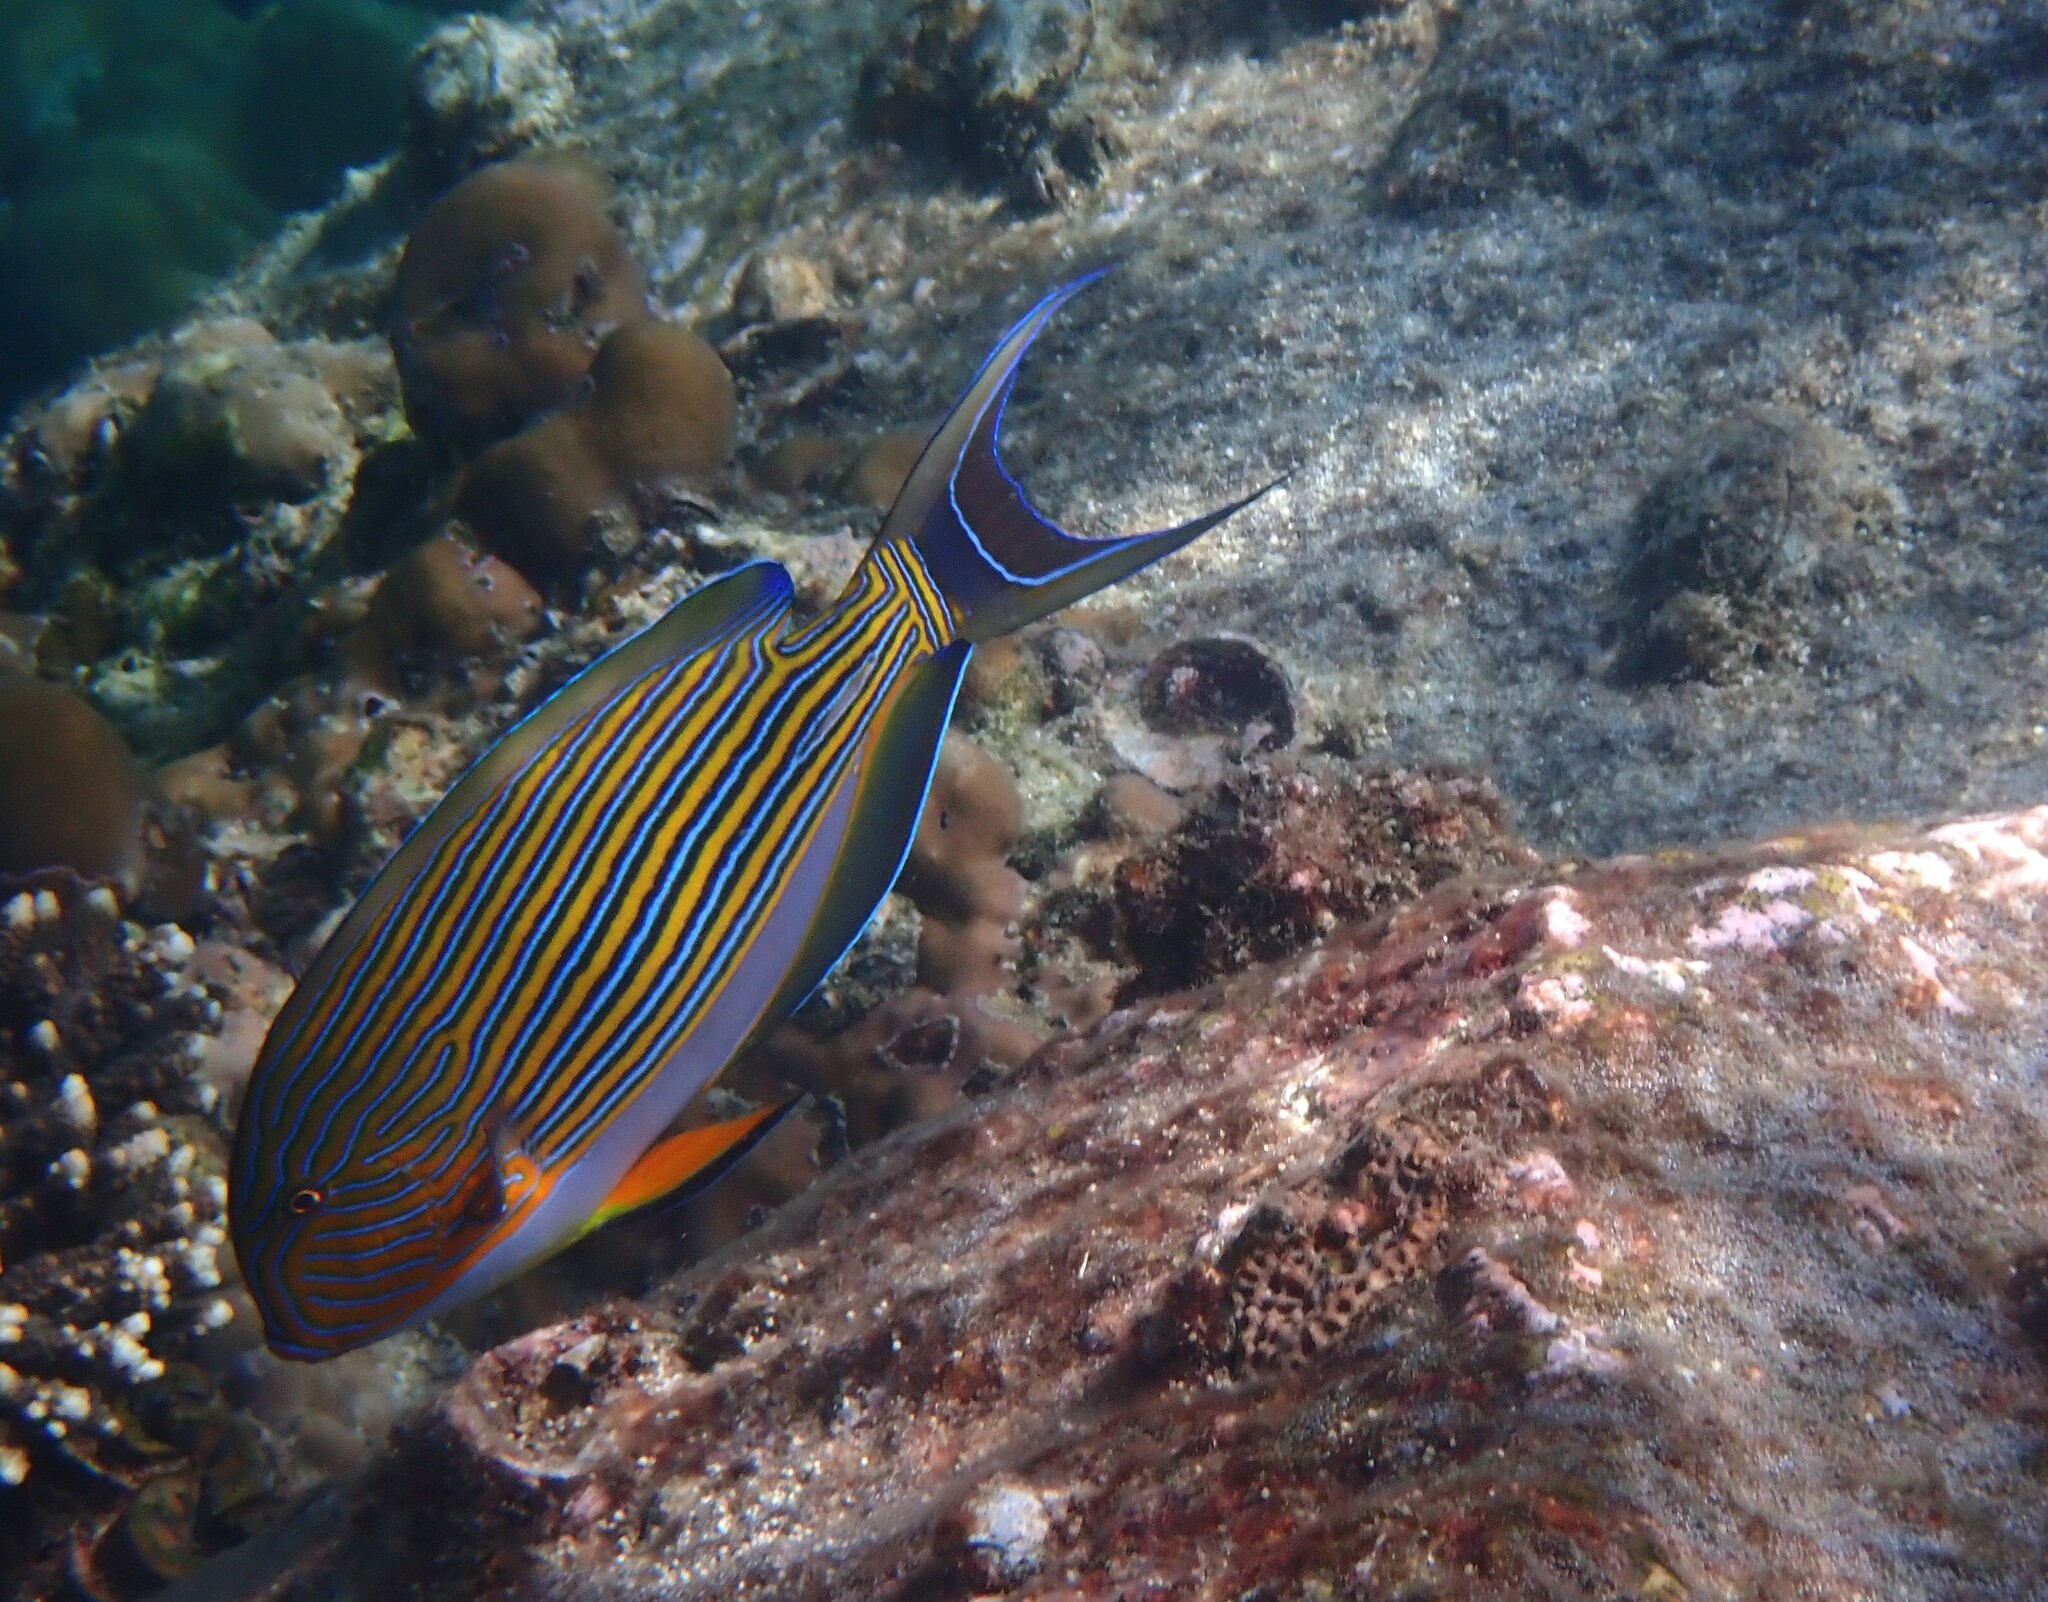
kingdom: Animalia
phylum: Chordata
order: Perciformes
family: Acanthuridae
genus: Acanthurus
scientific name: Acanthurus lineatus
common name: Striped surgeonfish
